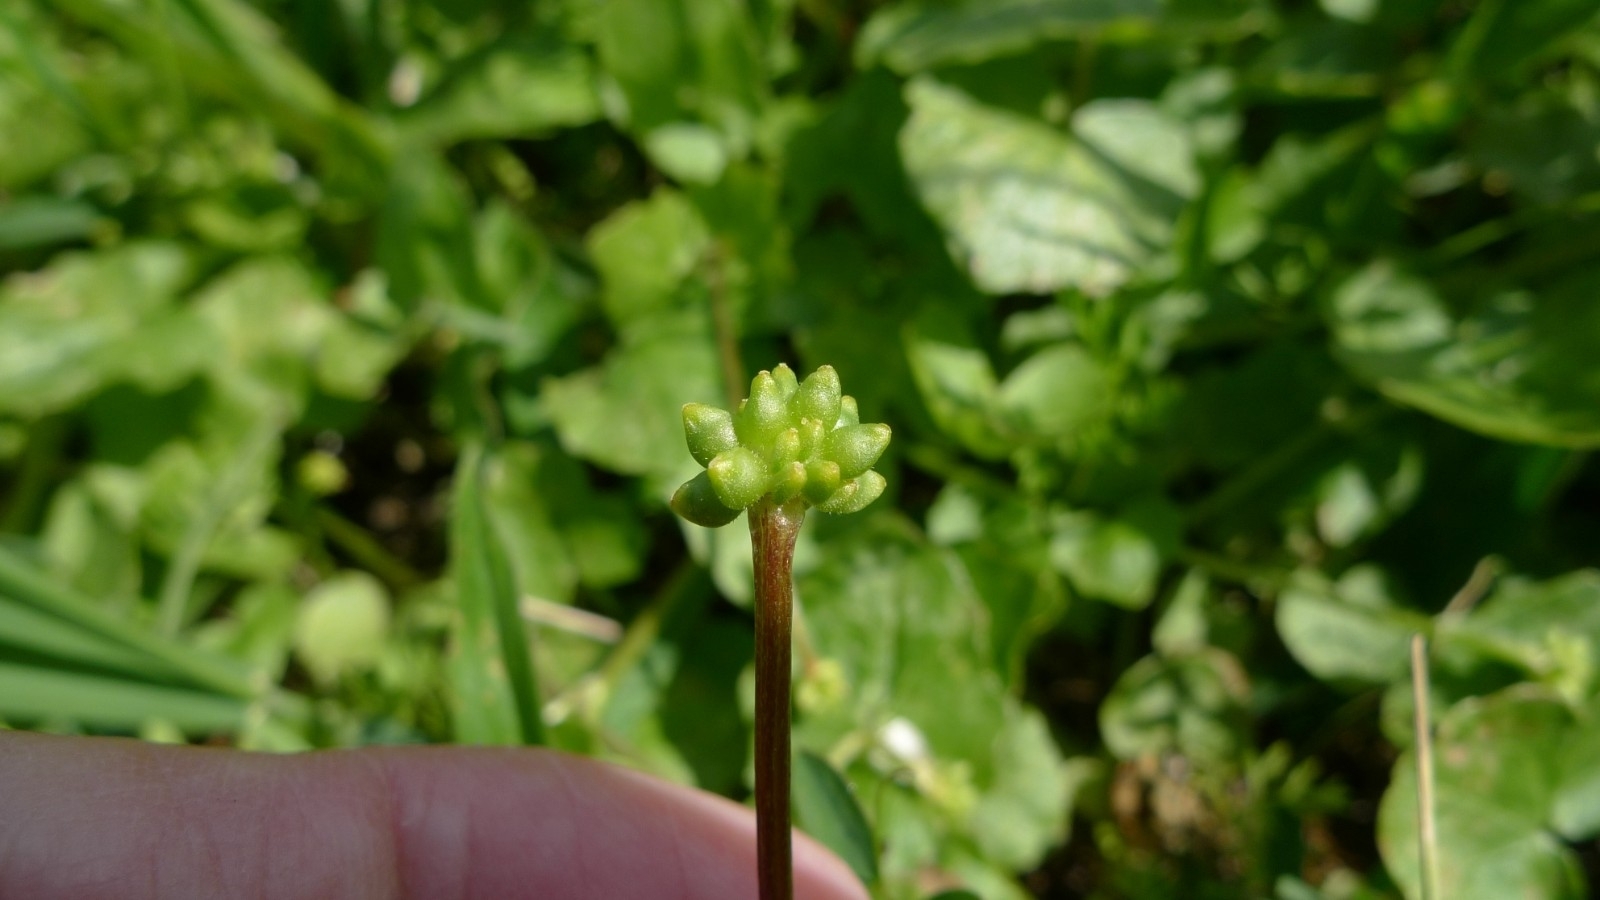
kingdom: Plantae
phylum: Tracheophyta
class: Magnoliopsida
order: Ranunculales
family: Ranunculaceae
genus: Ficaria
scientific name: Ficaria verna
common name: Lesser celandine
